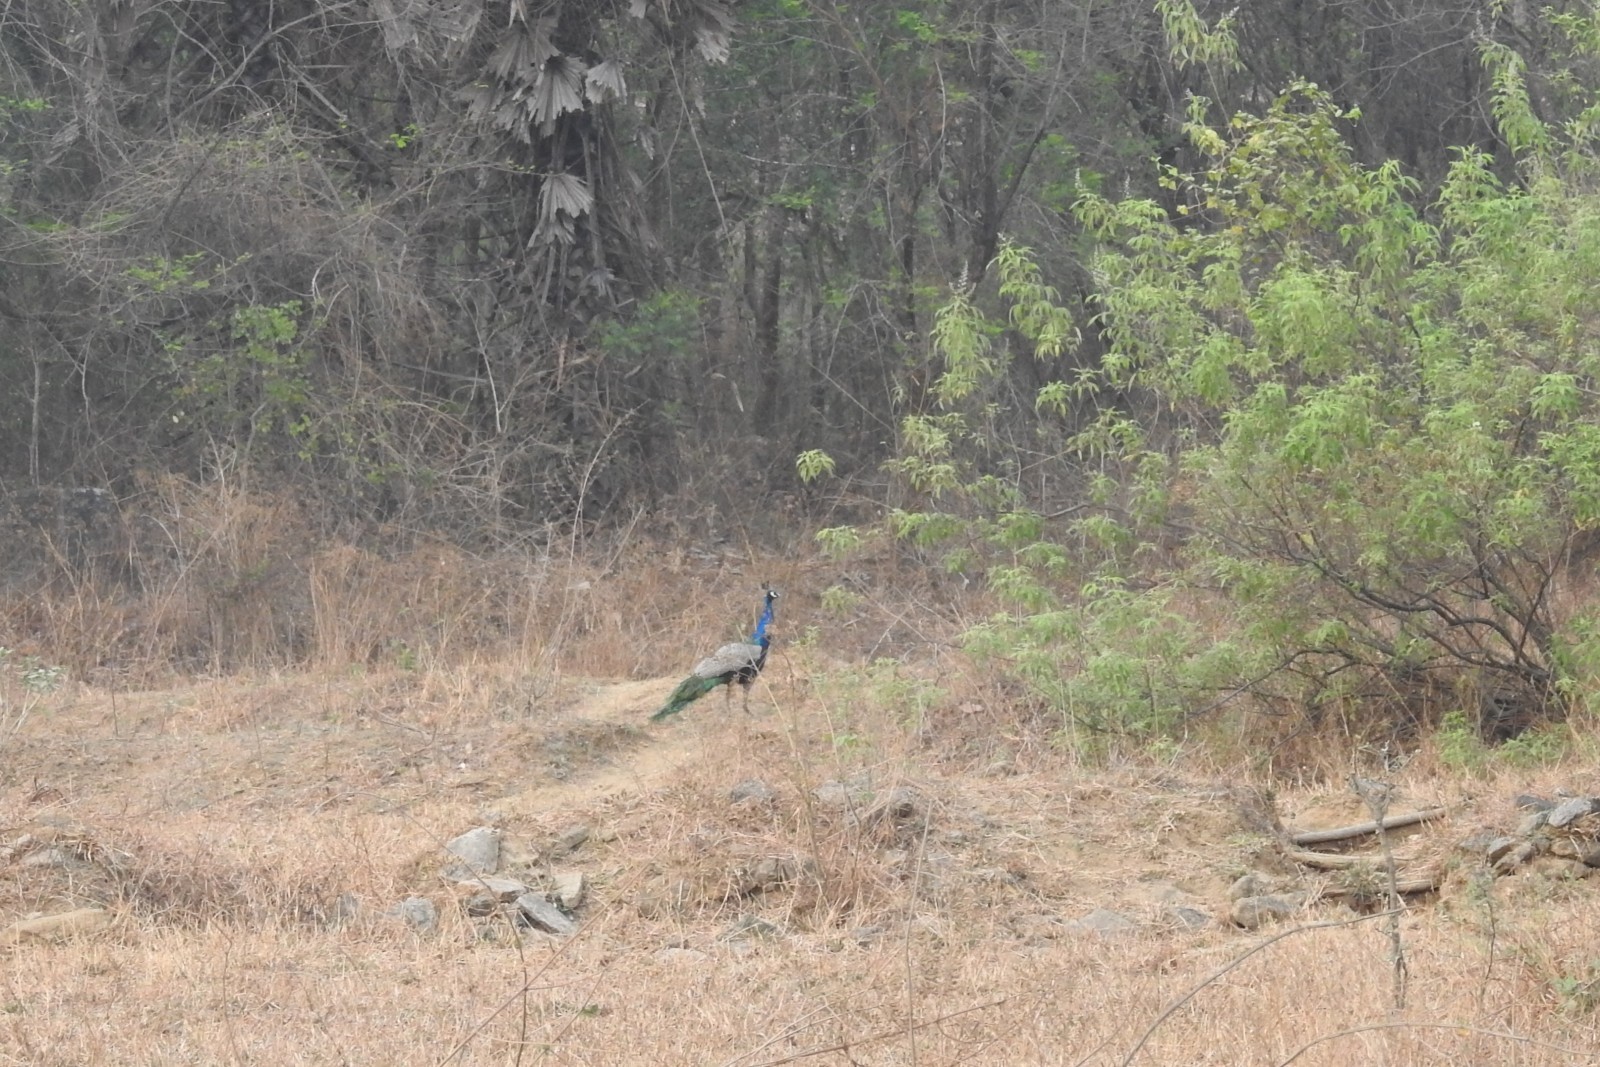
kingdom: Animalia
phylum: Chordata
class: Aves
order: Galliformes
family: Phasianidae
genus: Pavo
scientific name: Pavo cristatus
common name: Indian peafowl
